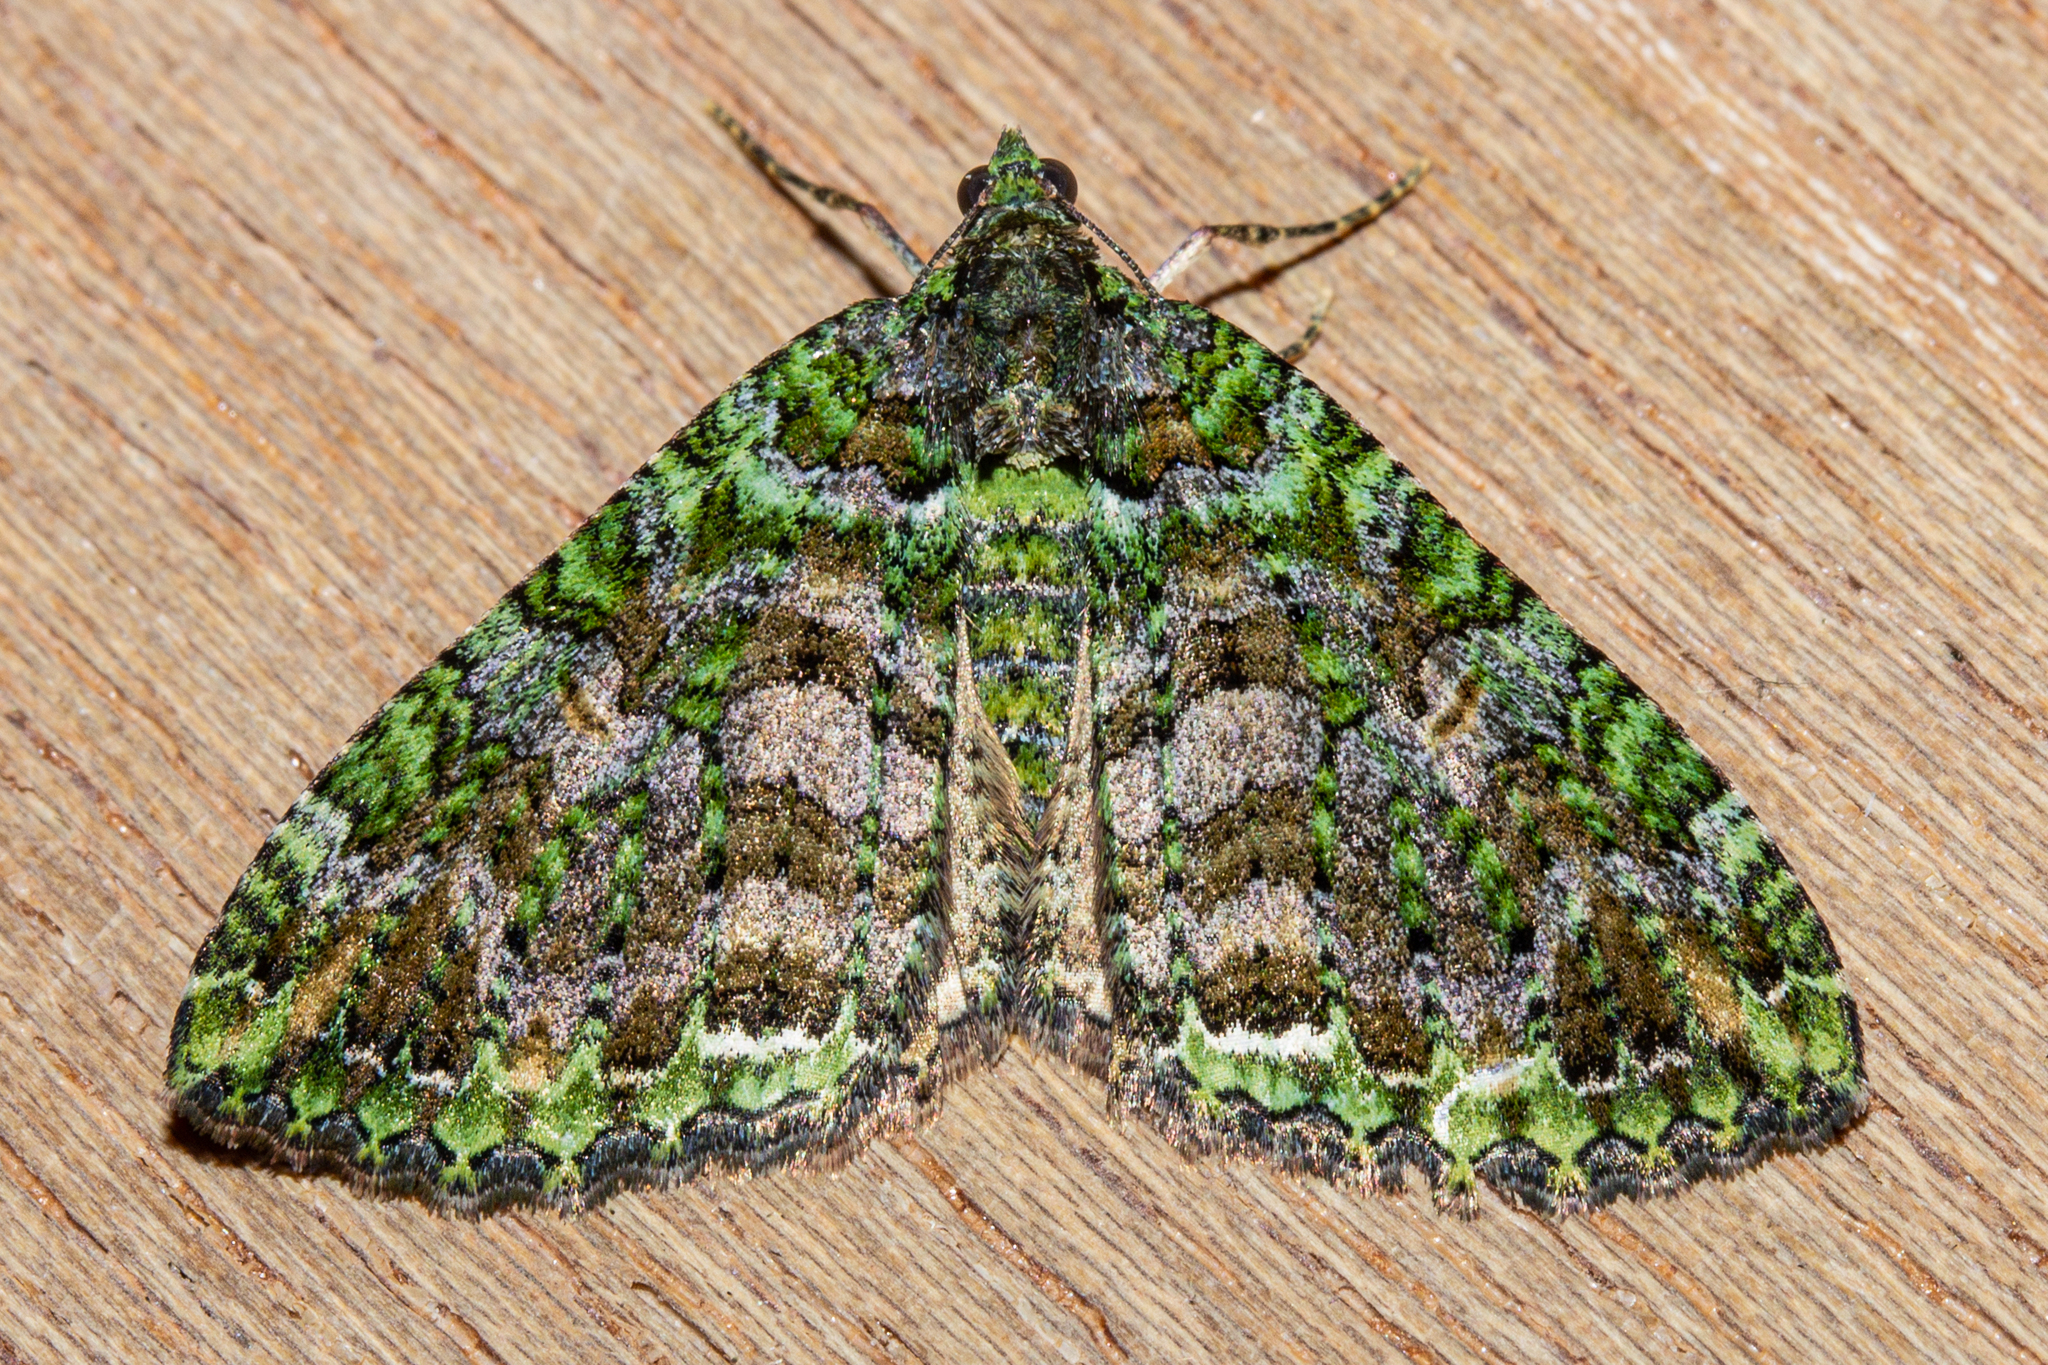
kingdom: Animalia
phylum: Arthropoda
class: Insecta
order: Lepidoptera
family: Geometridae
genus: Austrocidaria
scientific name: Austrocidaria similata
